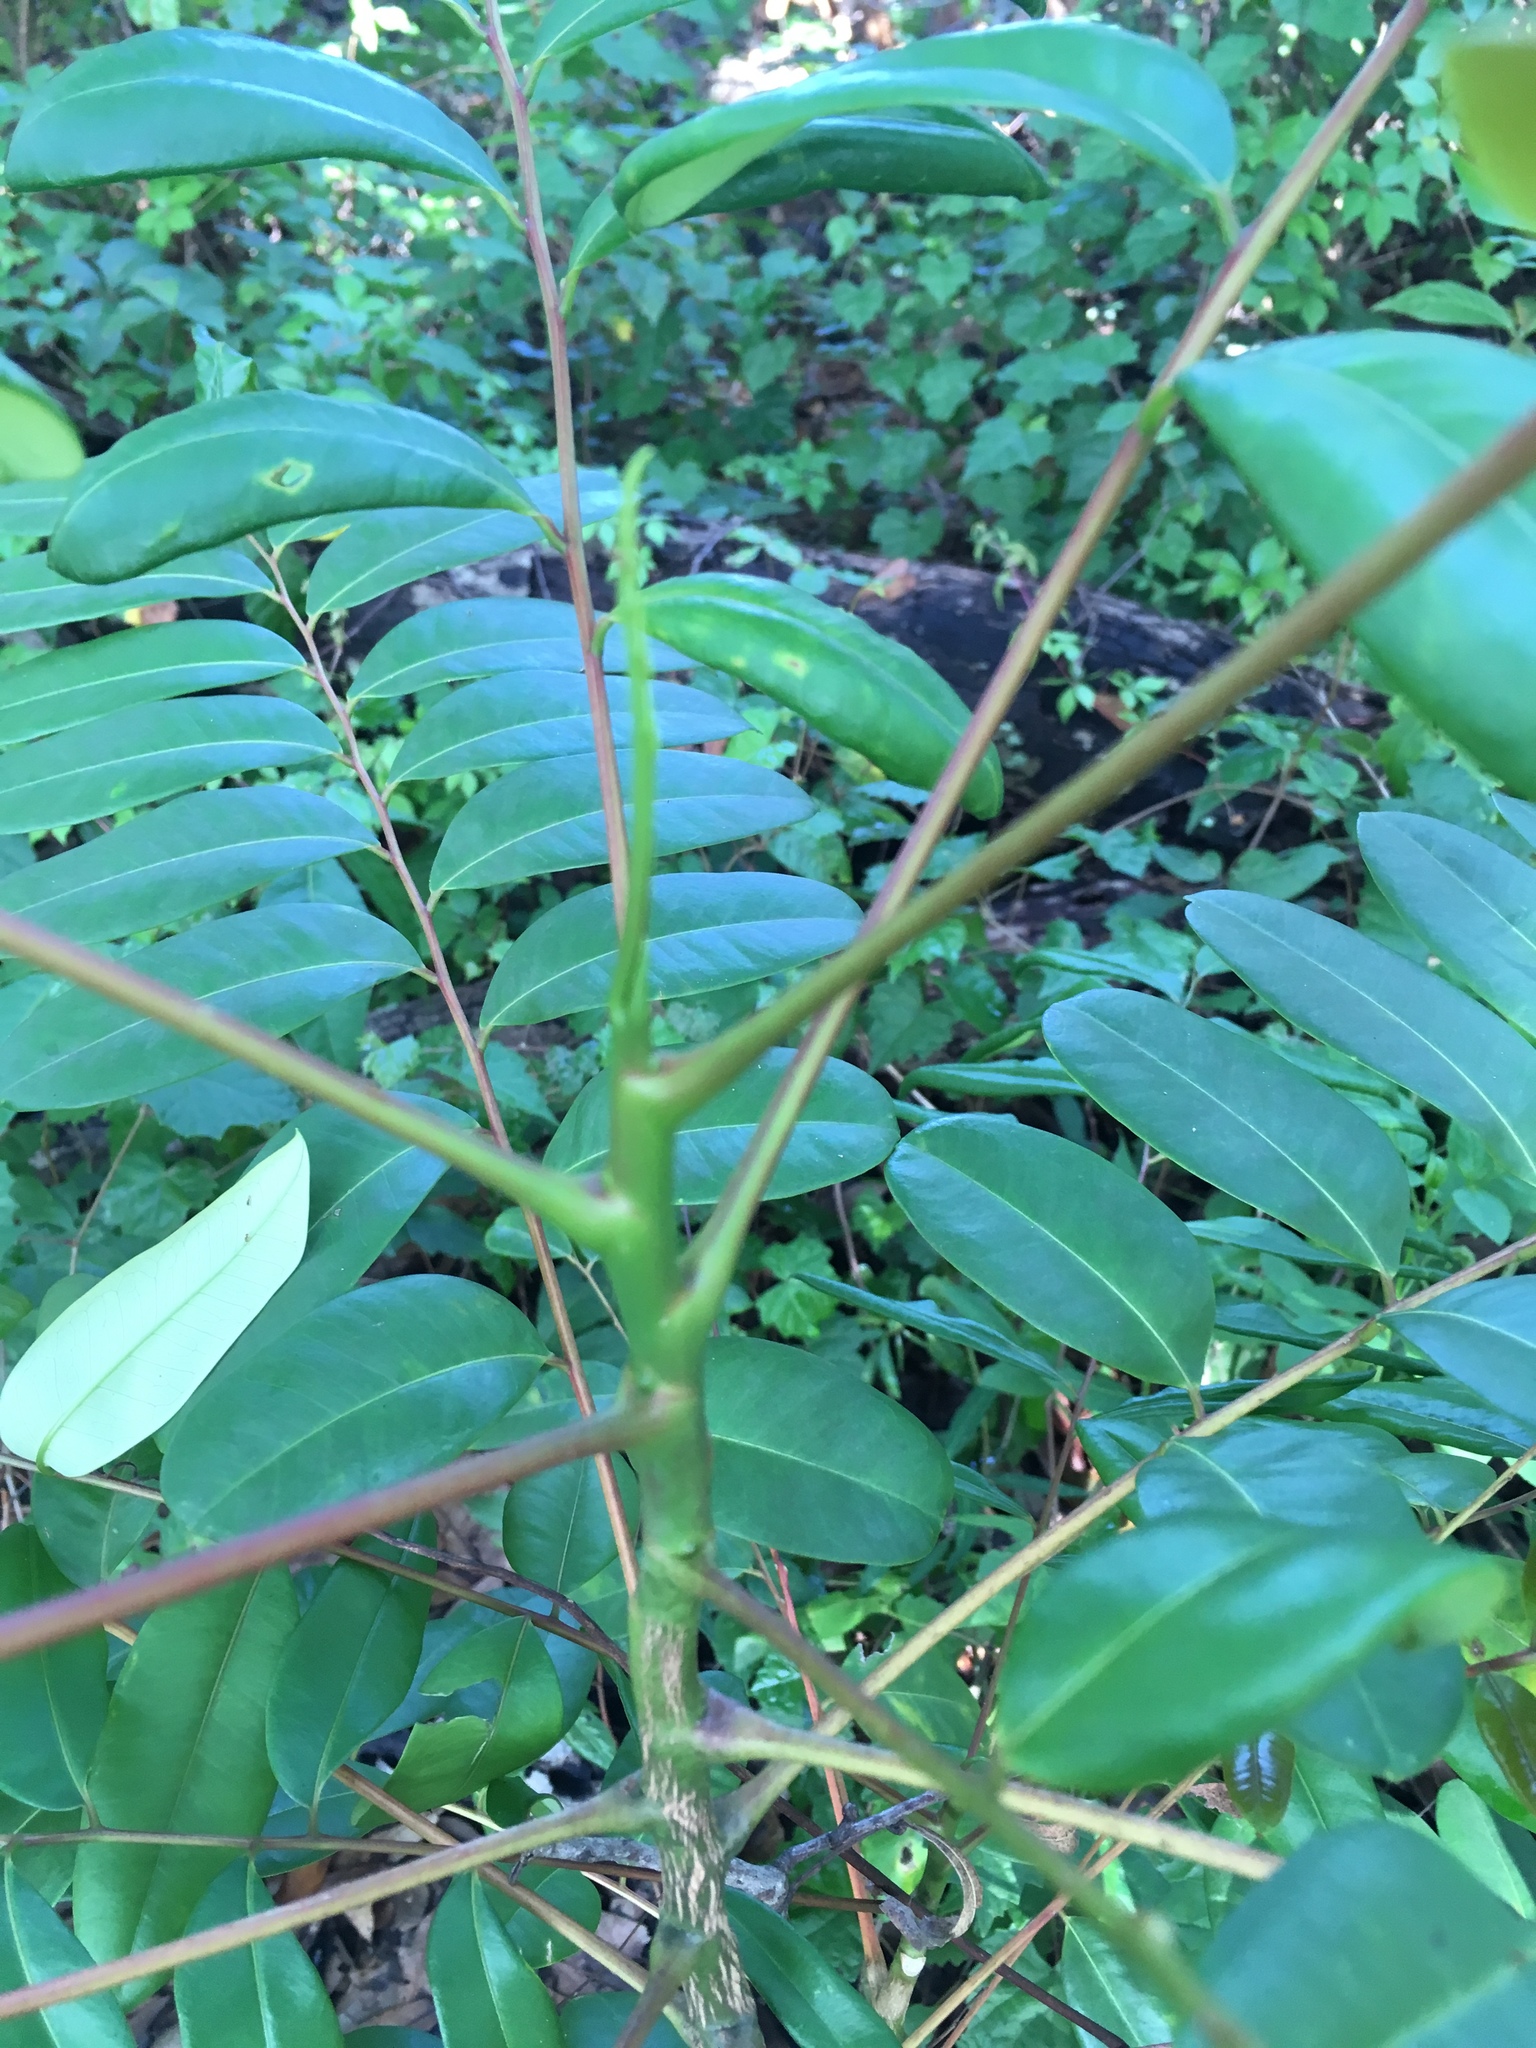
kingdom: Plantae
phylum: Tracheophyta
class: Magnoliopsida
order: Sapindales
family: Simaroubaceae
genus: Simarouba
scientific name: Simarouba glauca
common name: Dysentery-bark
